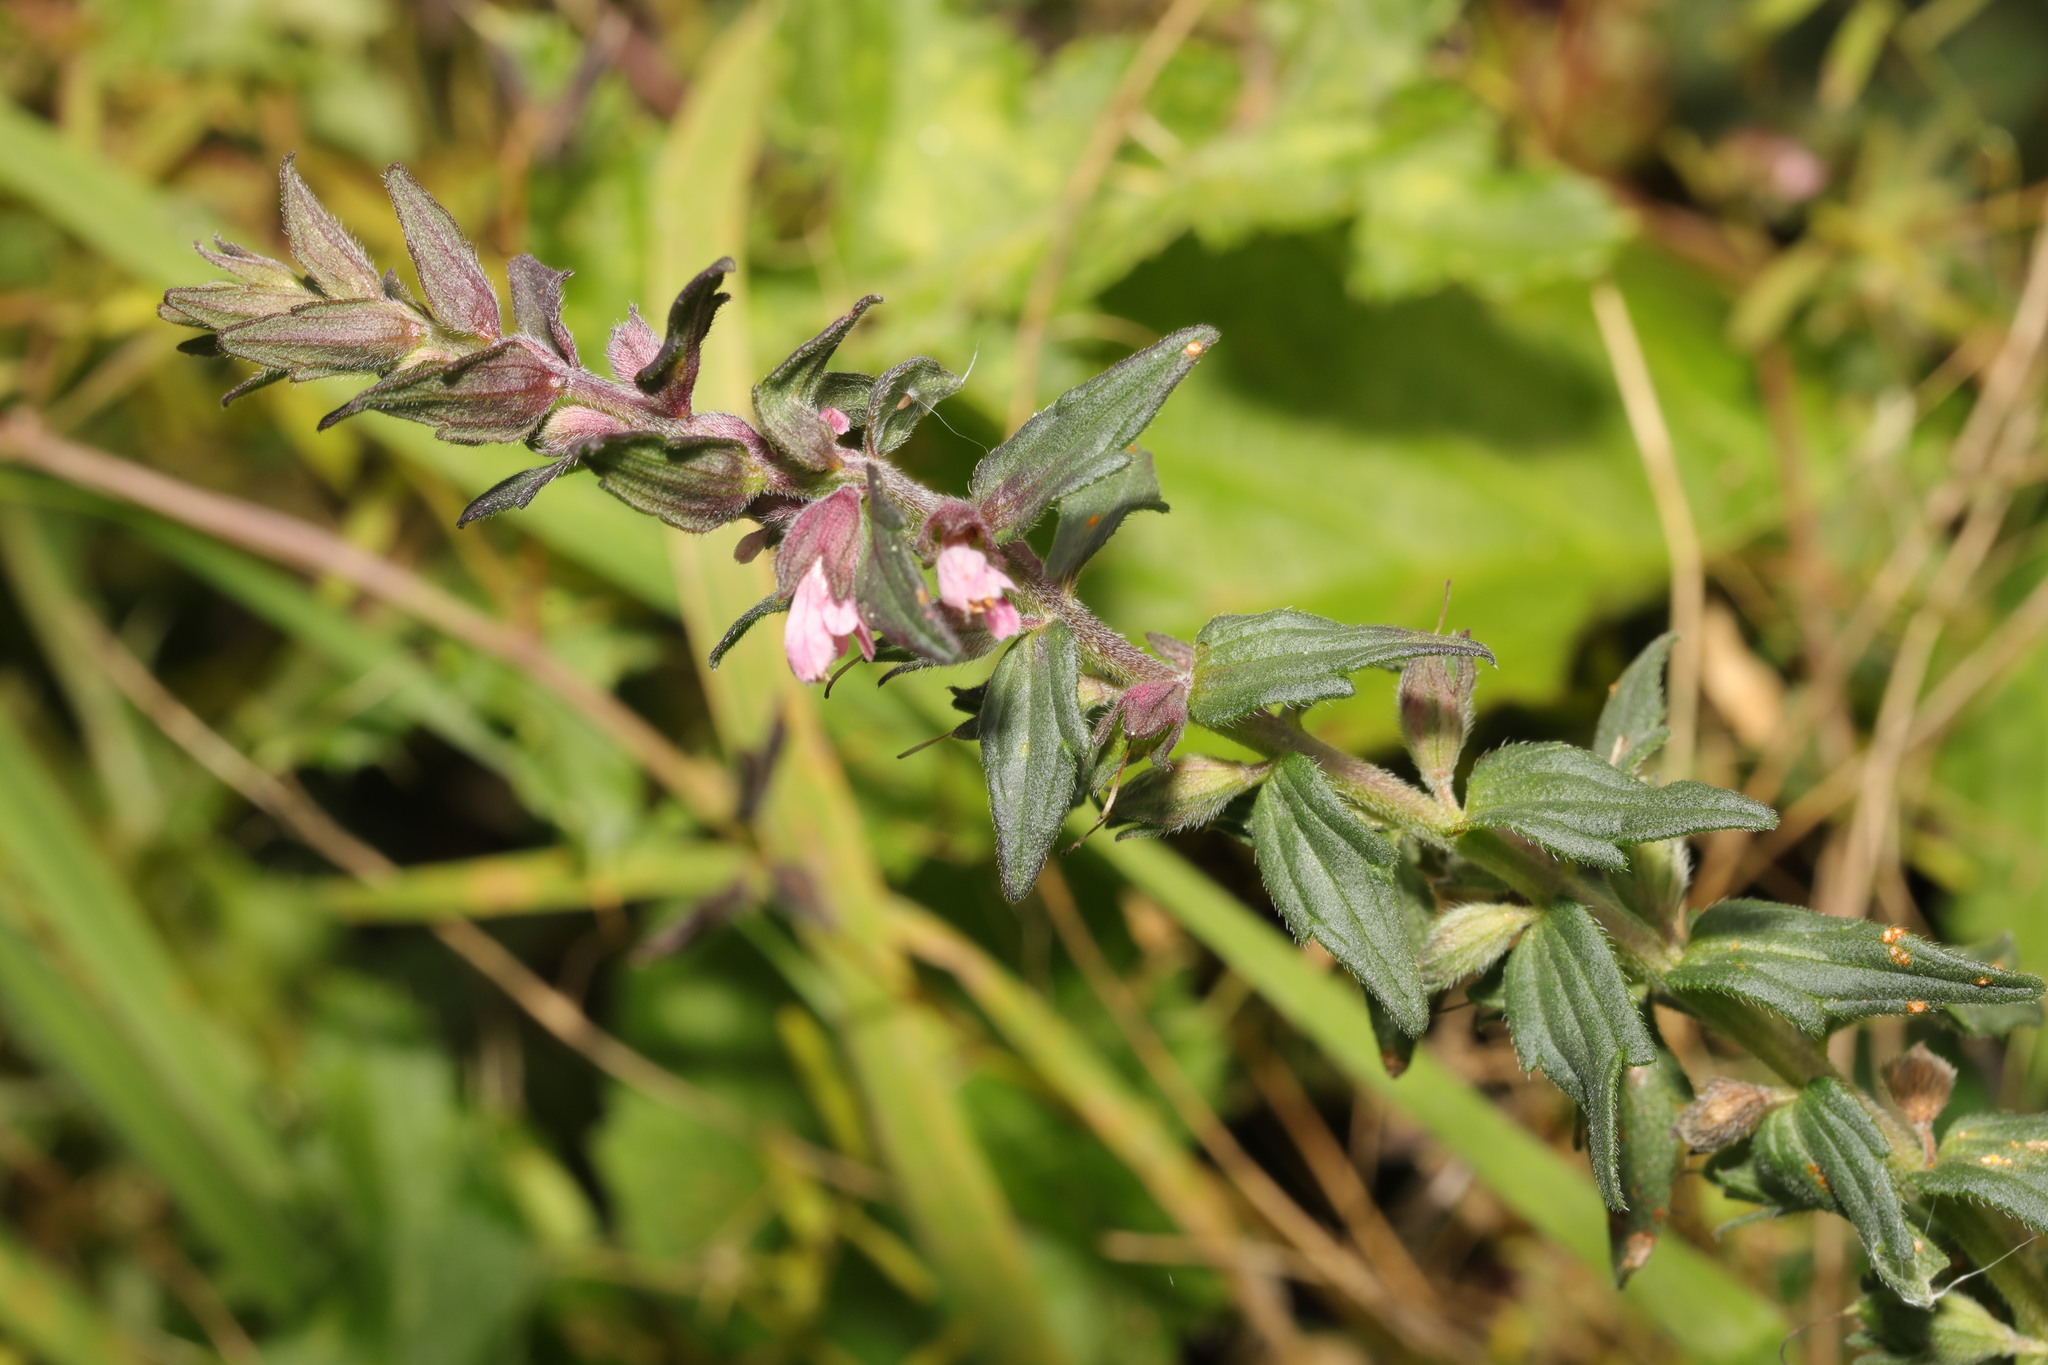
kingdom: Plantae
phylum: Tracheophyta
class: Magnoliopsida
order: Lamiales
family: Orobanchaceae
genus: Odontites
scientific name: Odontites vulgaris
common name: Broomrape
